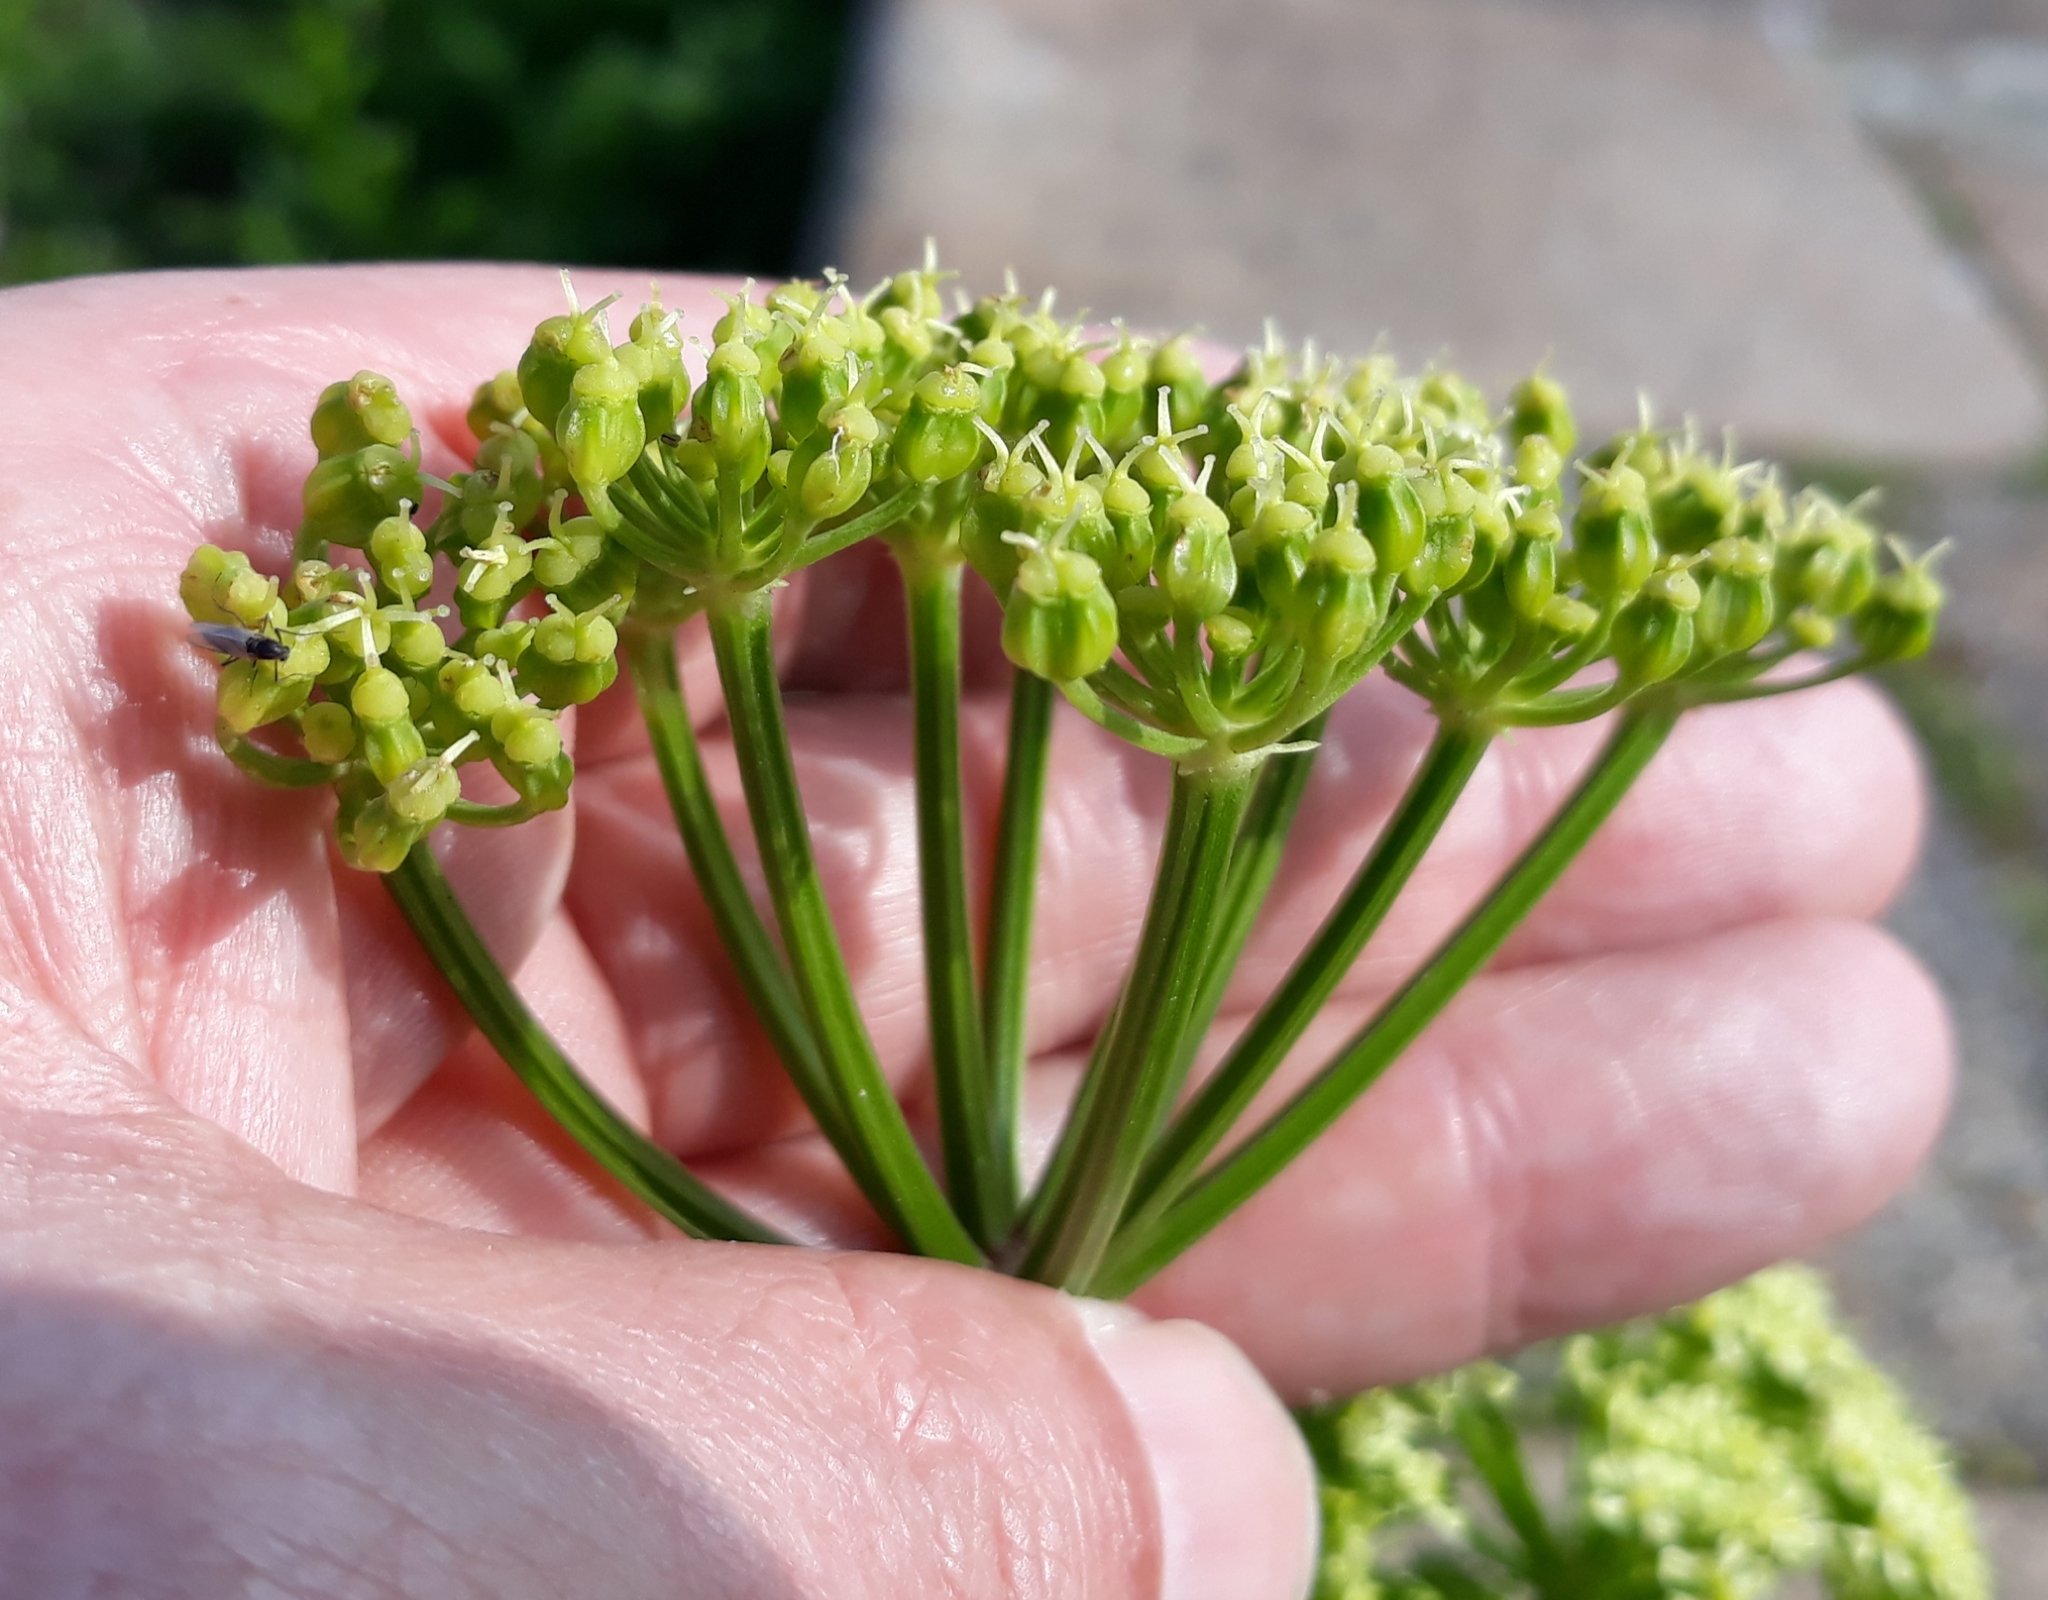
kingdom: Plantae
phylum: Tracheophyta
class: Magnoliopsida
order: Apiales
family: Apiaceae
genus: Smyrnium
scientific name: Smyrnium olusatrum
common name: Alexanders
